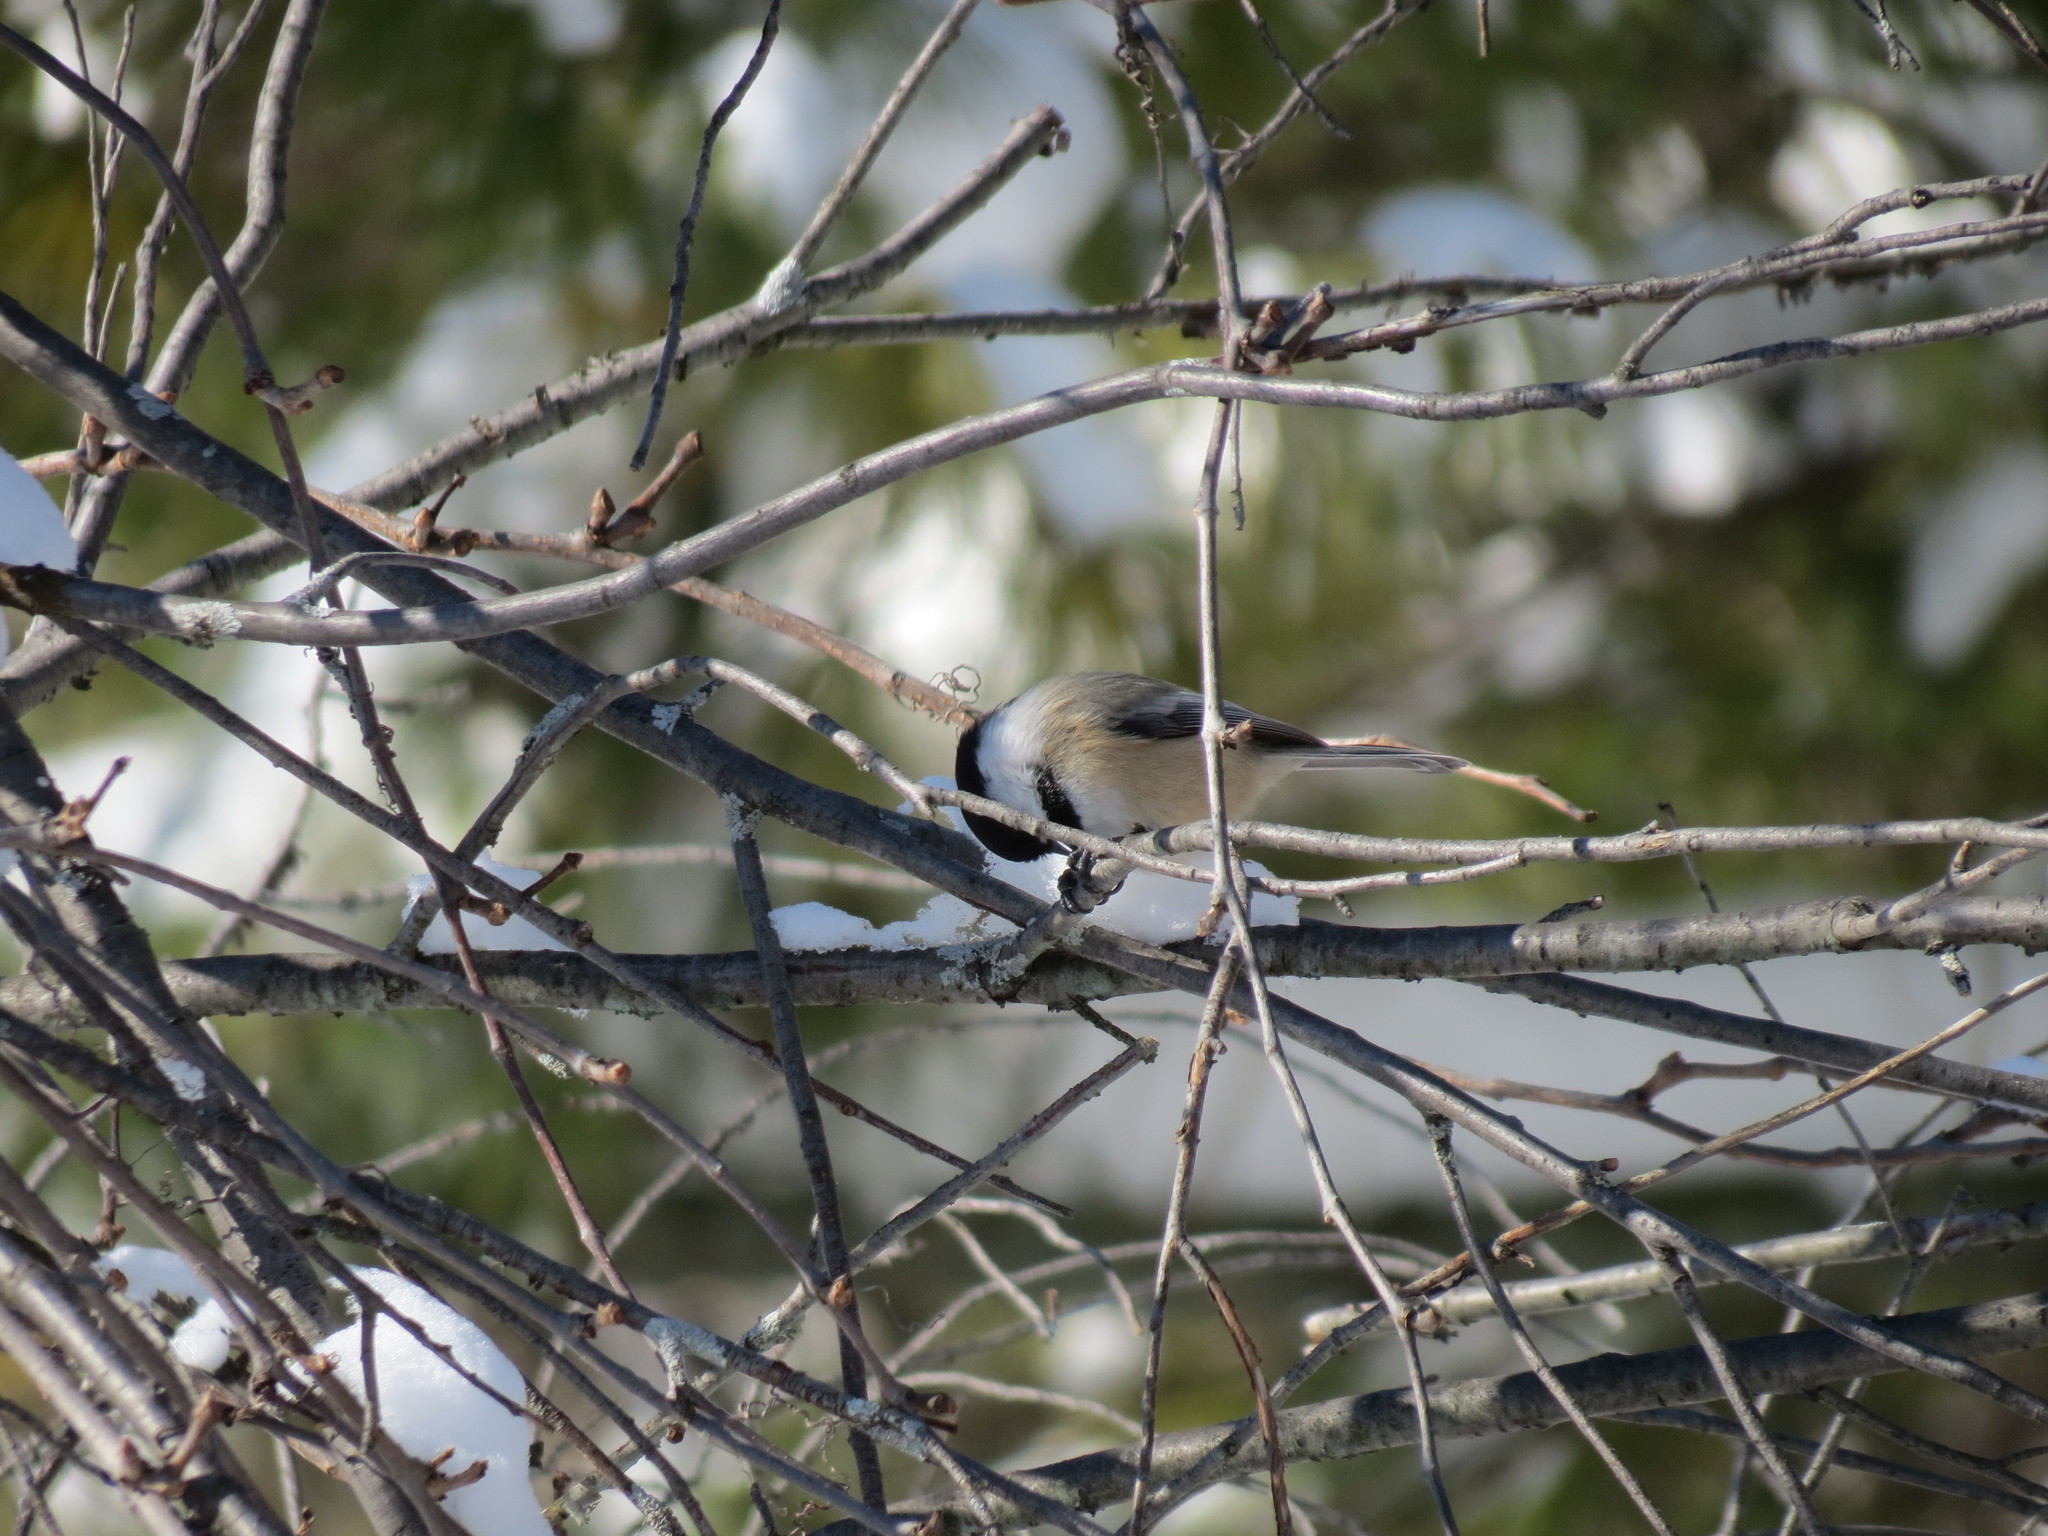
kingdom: Animalia
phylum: Chordata
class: Aves
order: Passeriformes
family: Paridae
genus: Poecile
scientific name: Poecile atricapillus
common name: Black-capped chickadee
